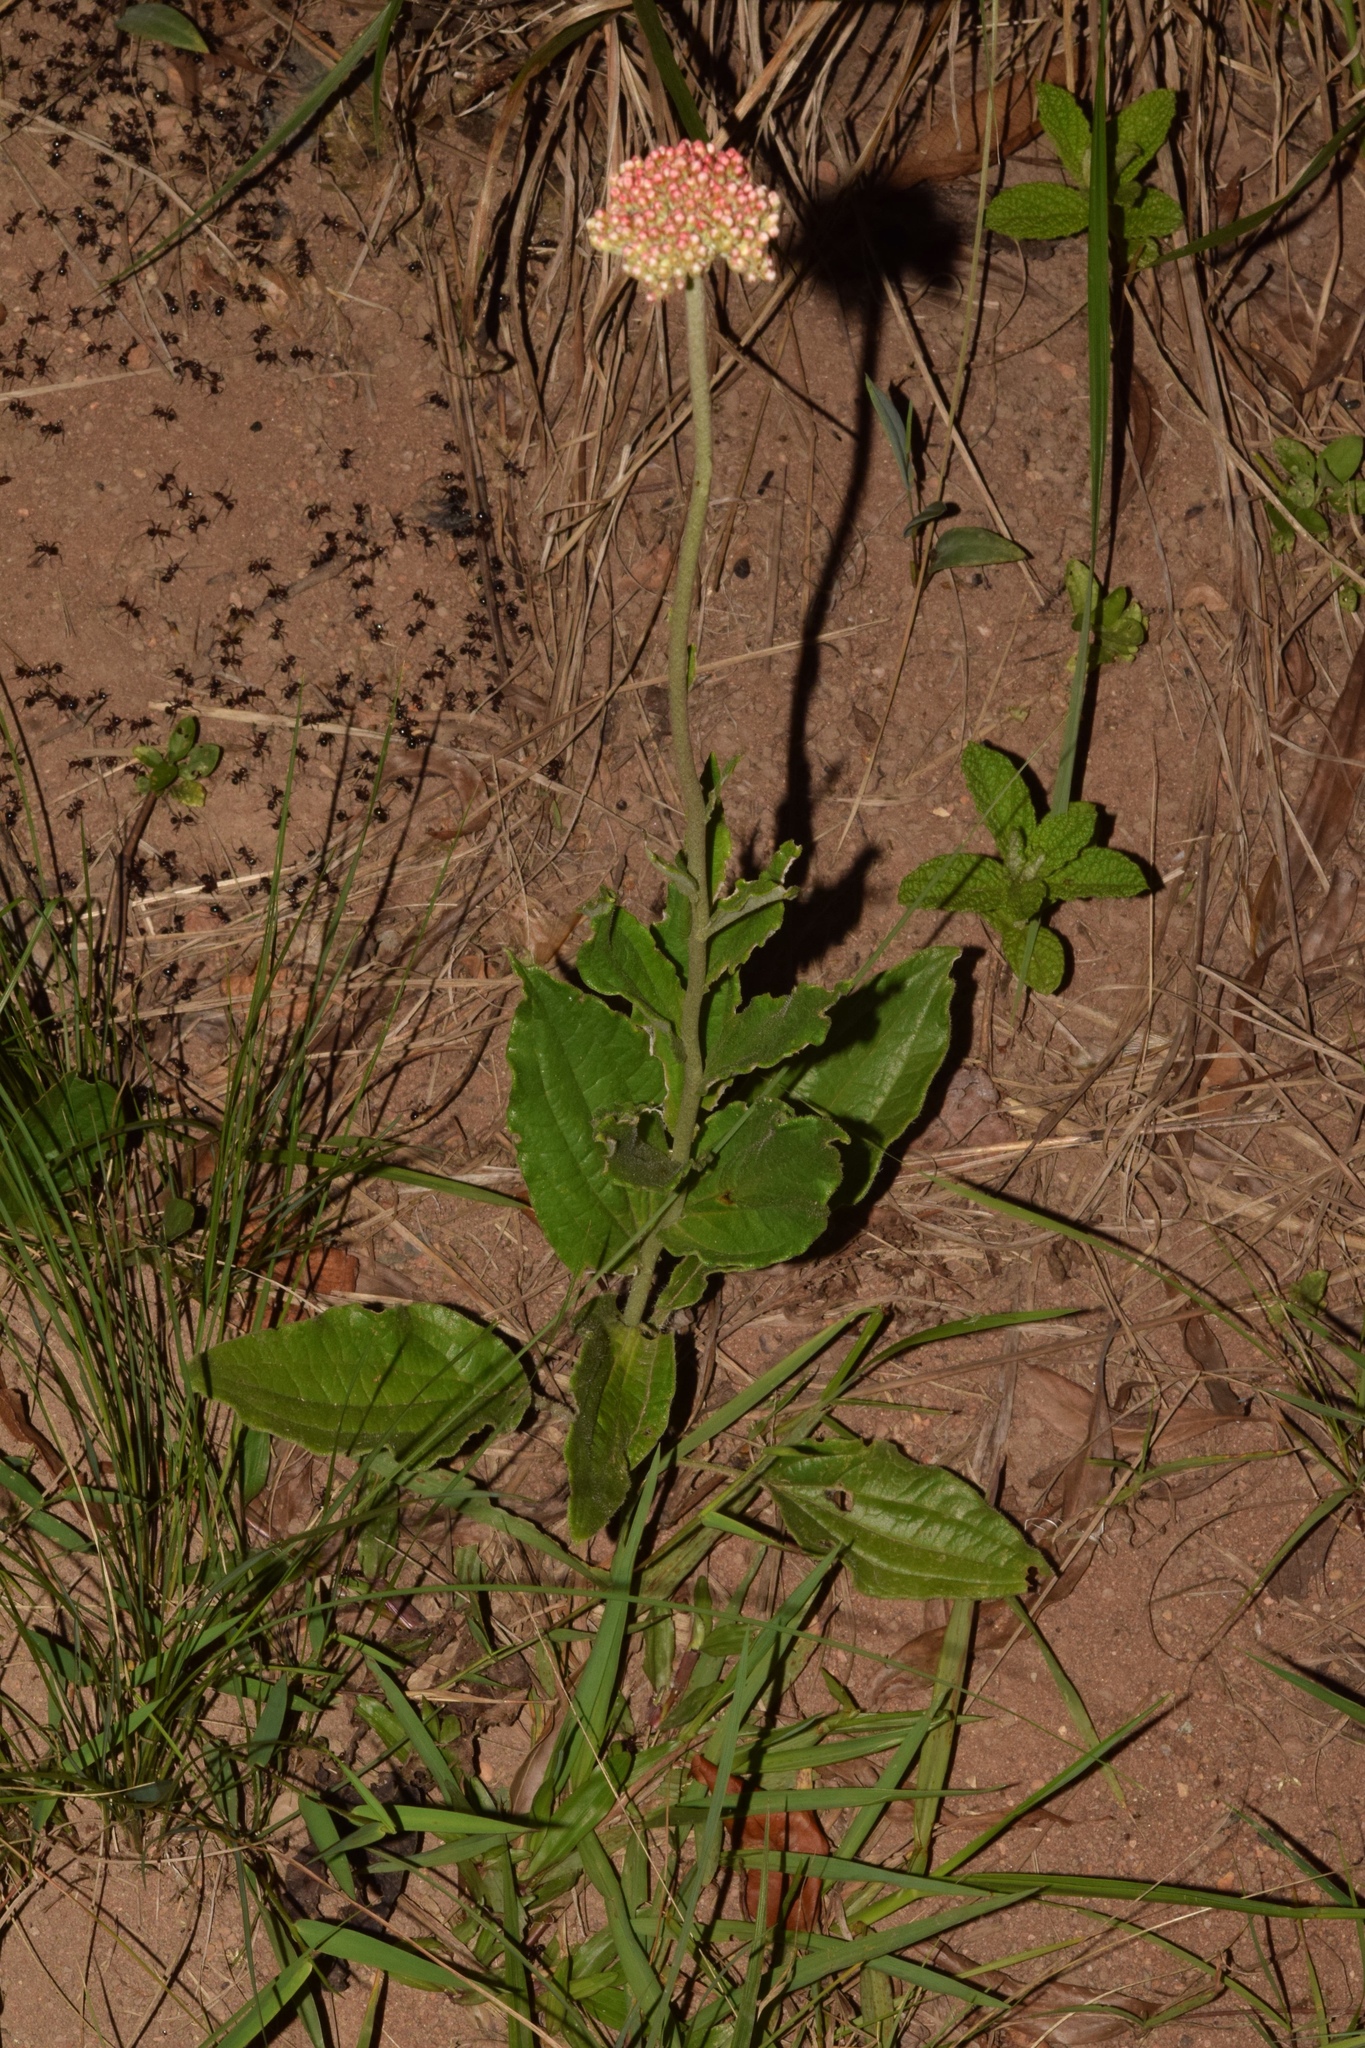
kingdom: Plantae
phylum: Tracheophyta
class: Magnoliopsida
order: Asterales
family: Asteraceae
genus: Helichrysum
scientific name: Helichrysum nudifolium
